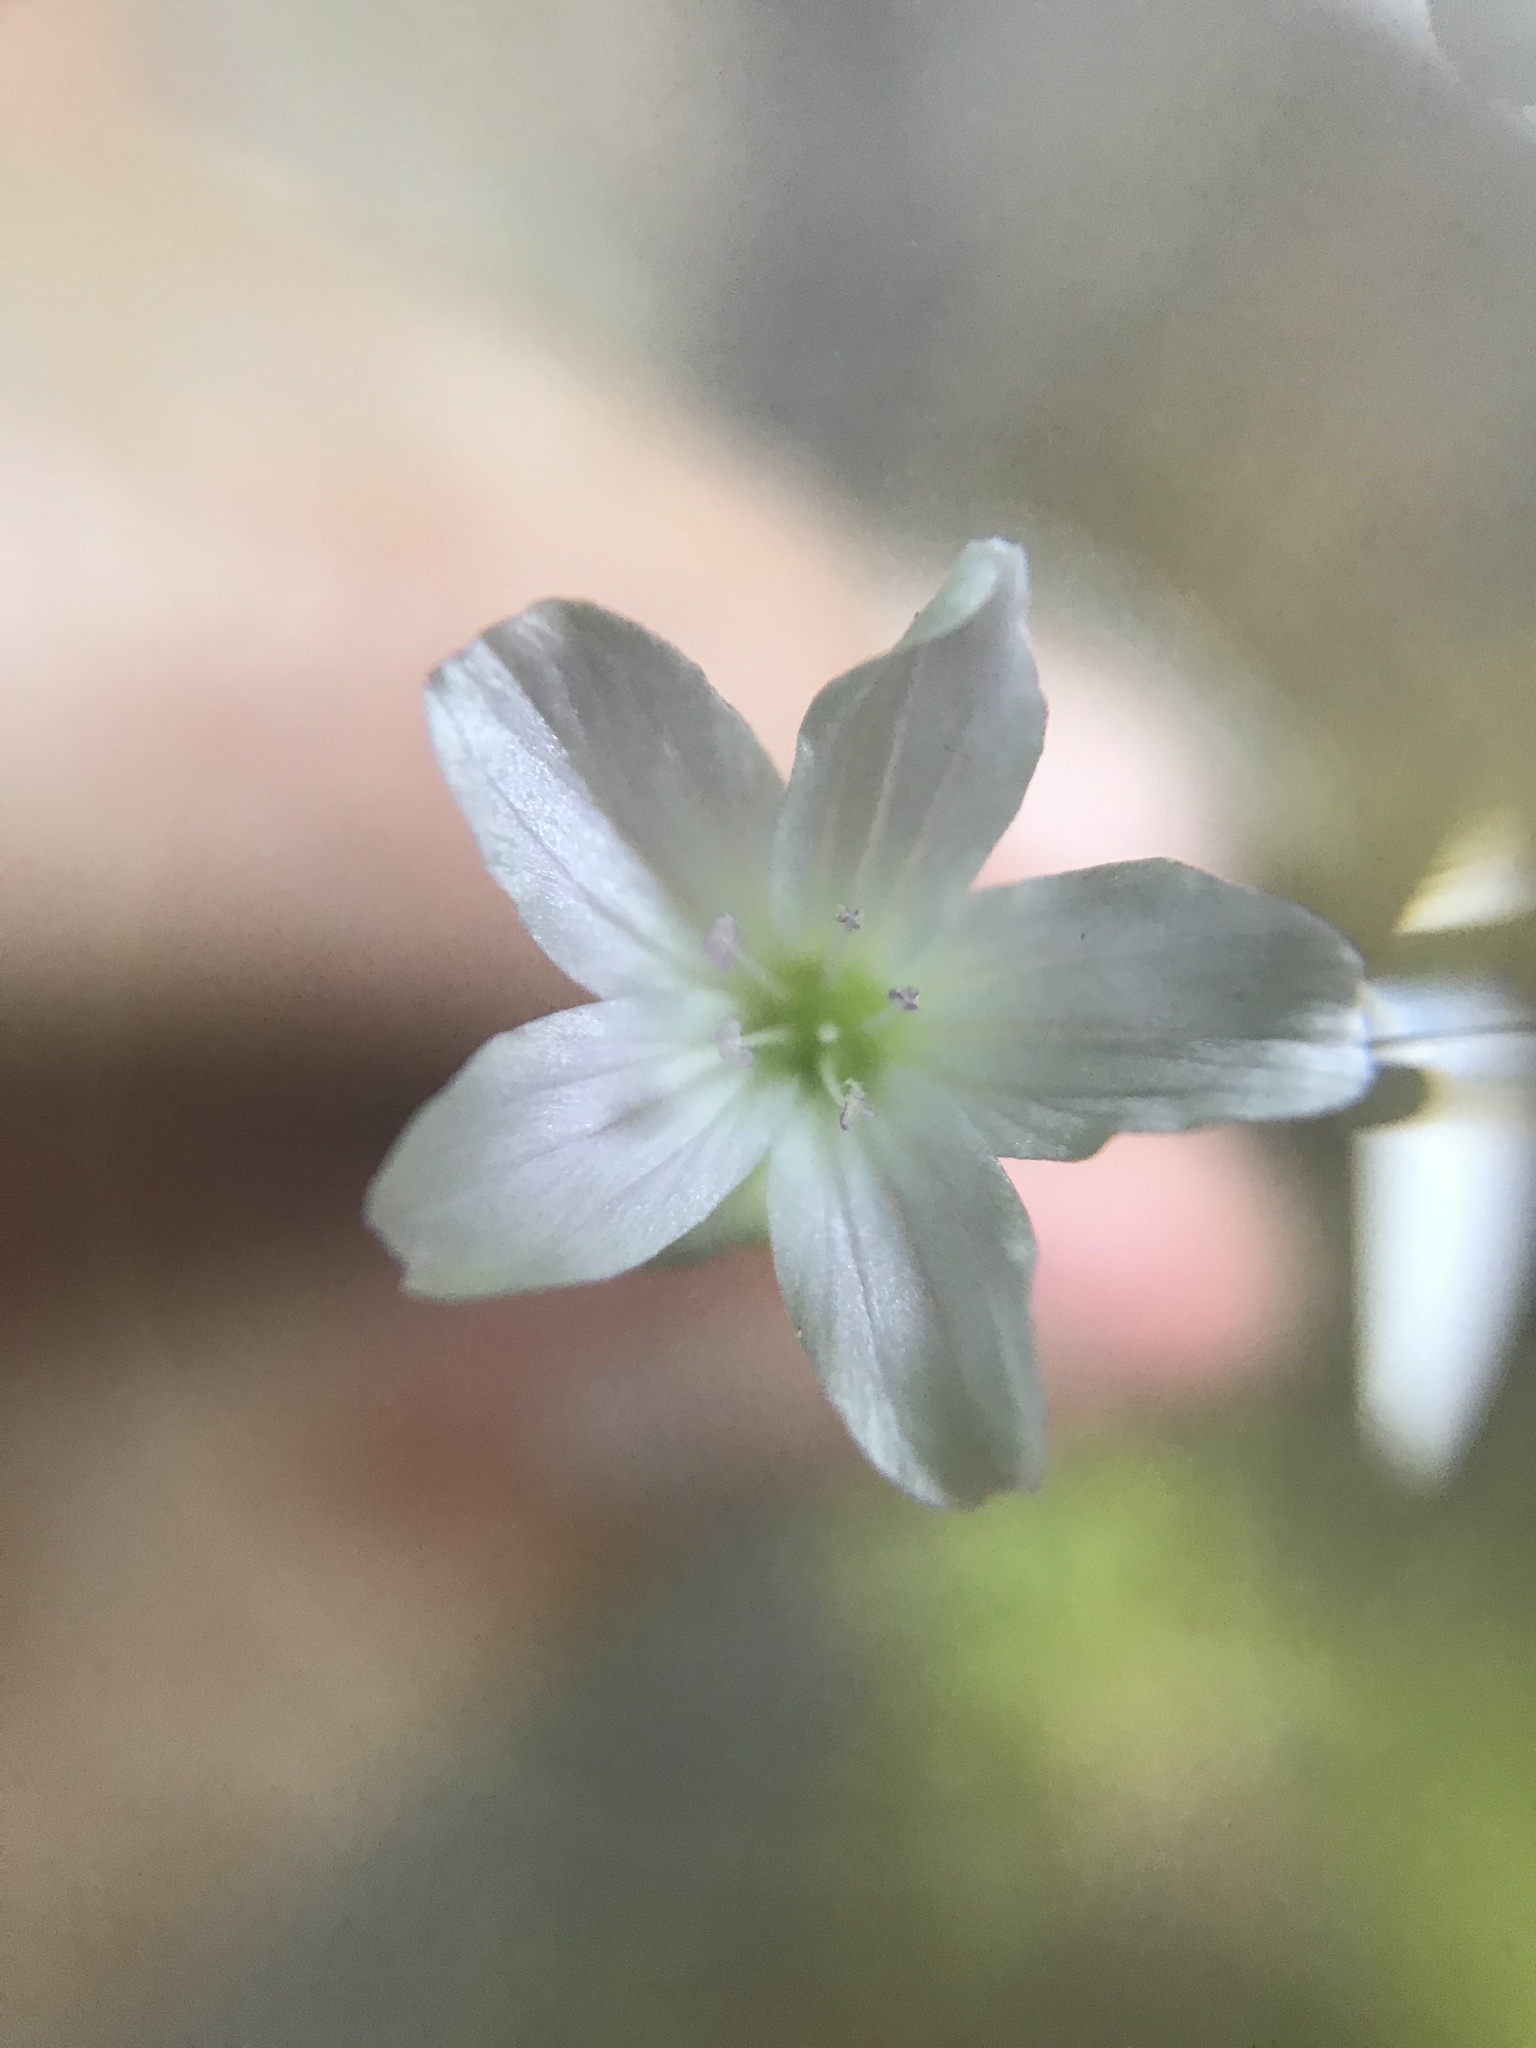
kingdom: Plantae
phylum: Tracheophyta
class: Magnoliopsida
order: Caryophyllales
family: Montiaceae
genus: Montia
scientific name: Montia parvifolia
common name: Small-leaved blinks
